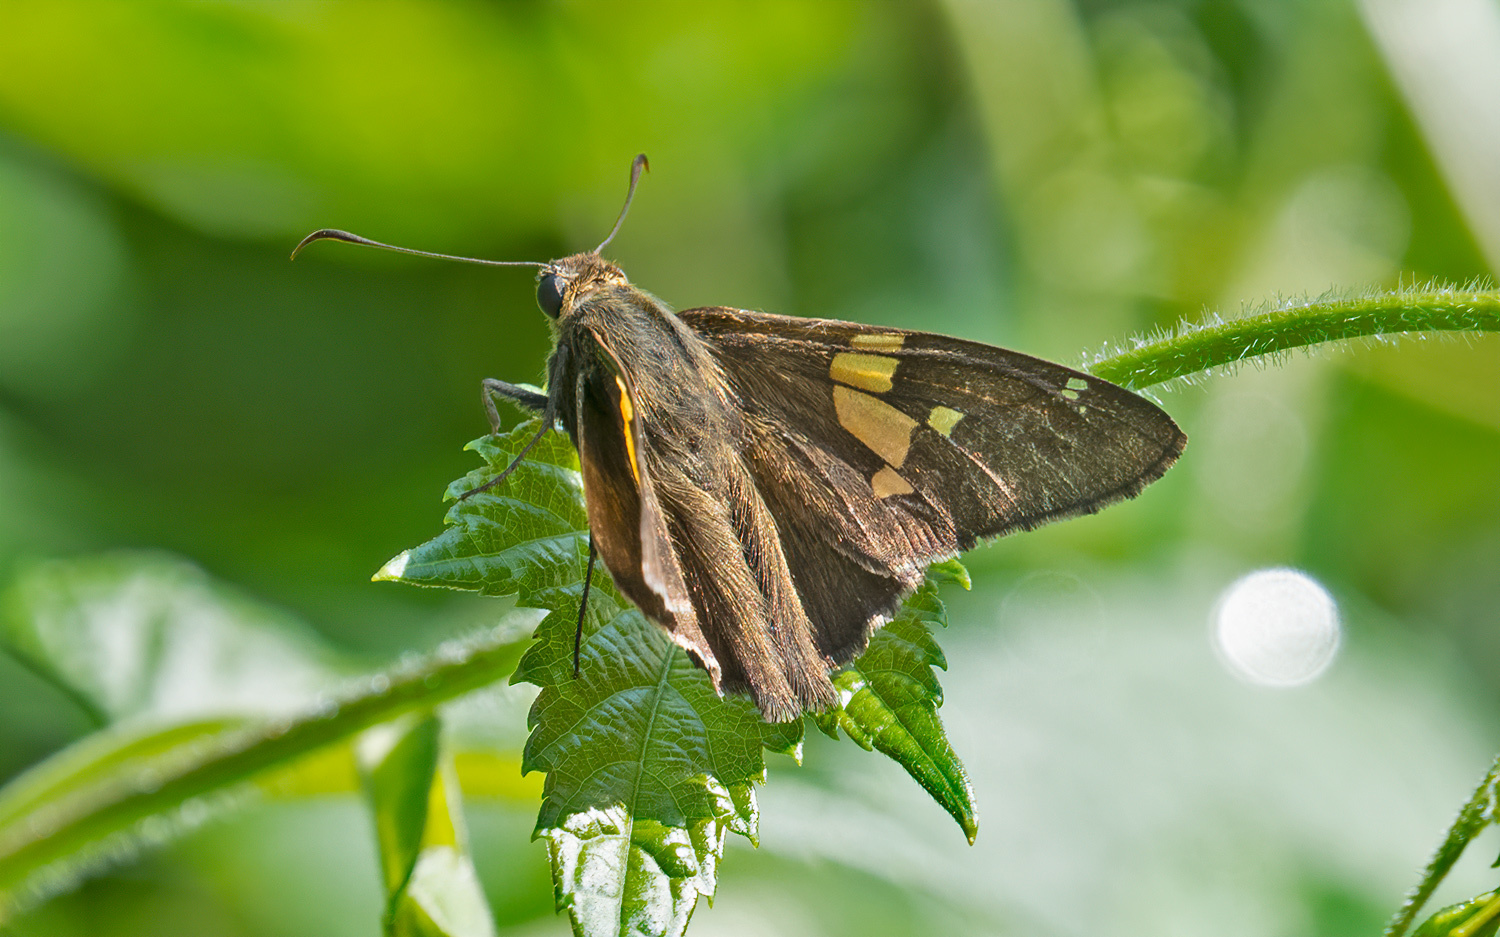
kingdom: Animalia
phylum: Arthropoda
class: Insecta
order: Lepidoptera
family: Hesperiidae
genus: Epargyreus
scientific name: Epargyreus clarus
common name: Silver-spotted skipper
